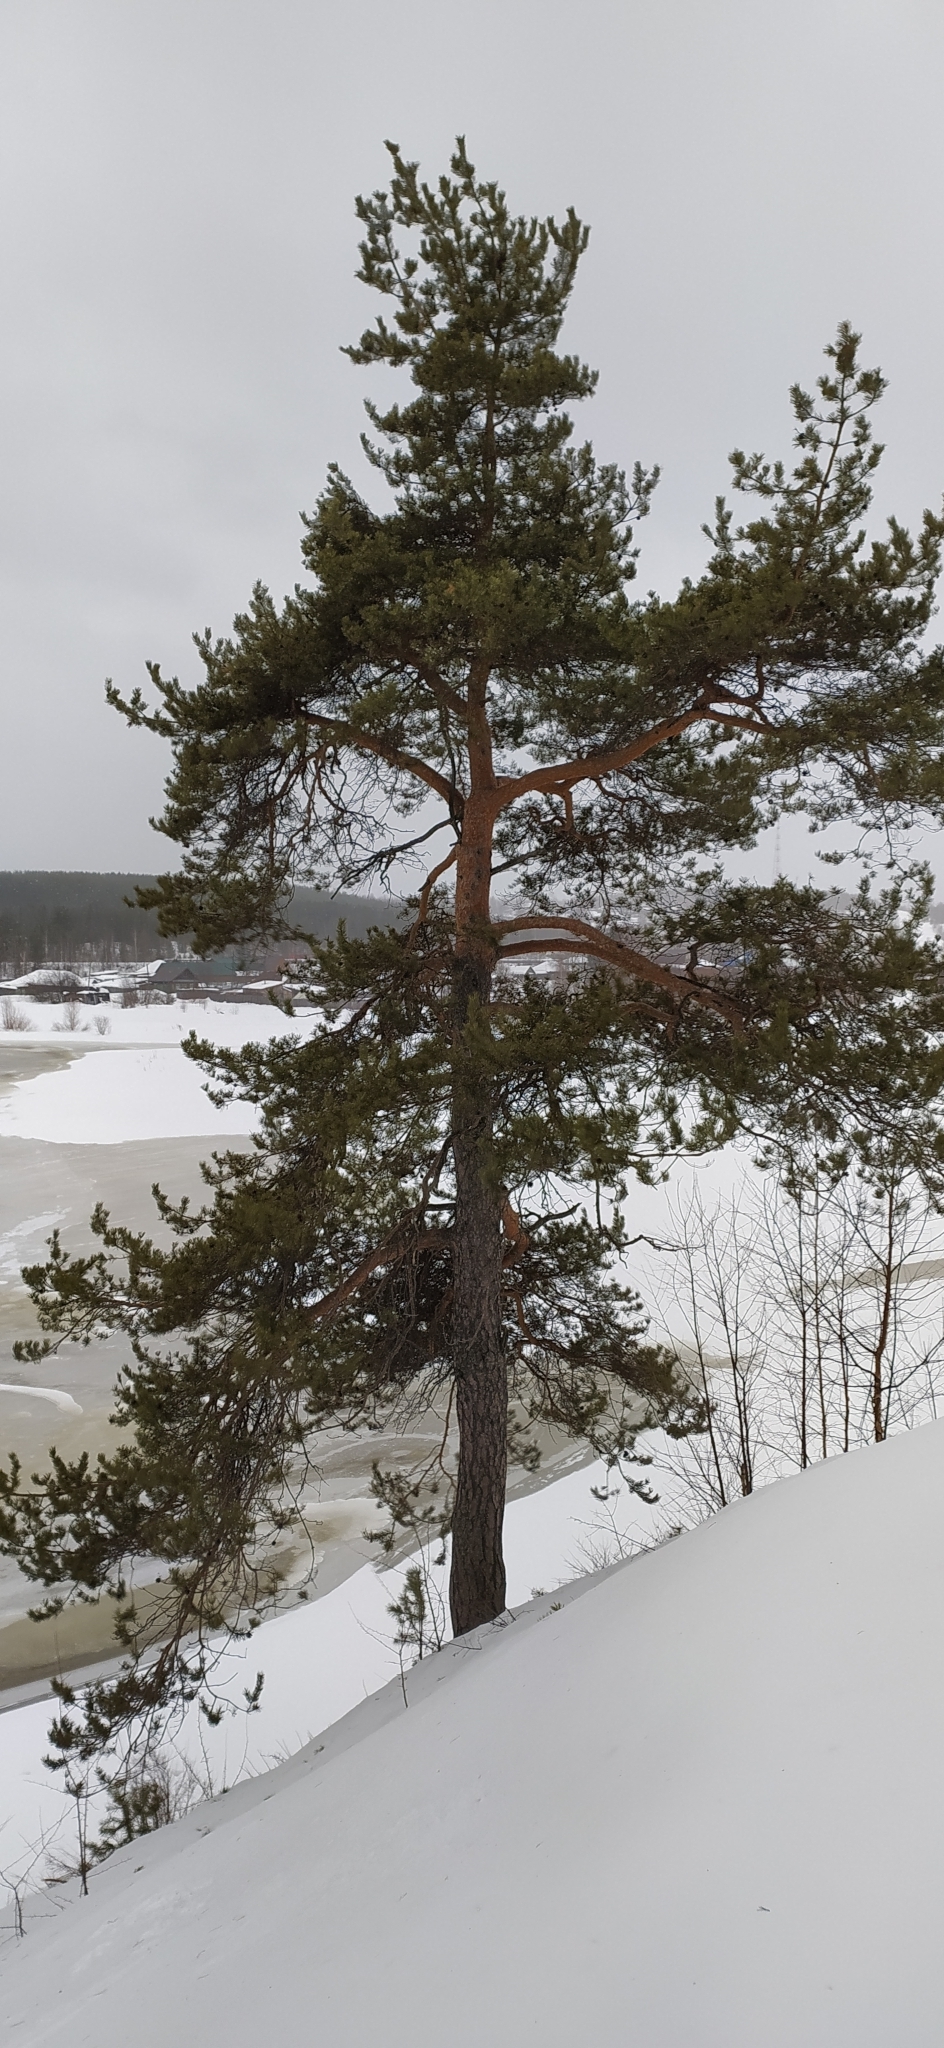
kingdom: Plantae
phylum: Tracheophyta
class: Pinopsida
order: Pinales
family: Pinaceae
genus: Pinus
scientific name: Pinus sylvestris
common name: Scots pine
